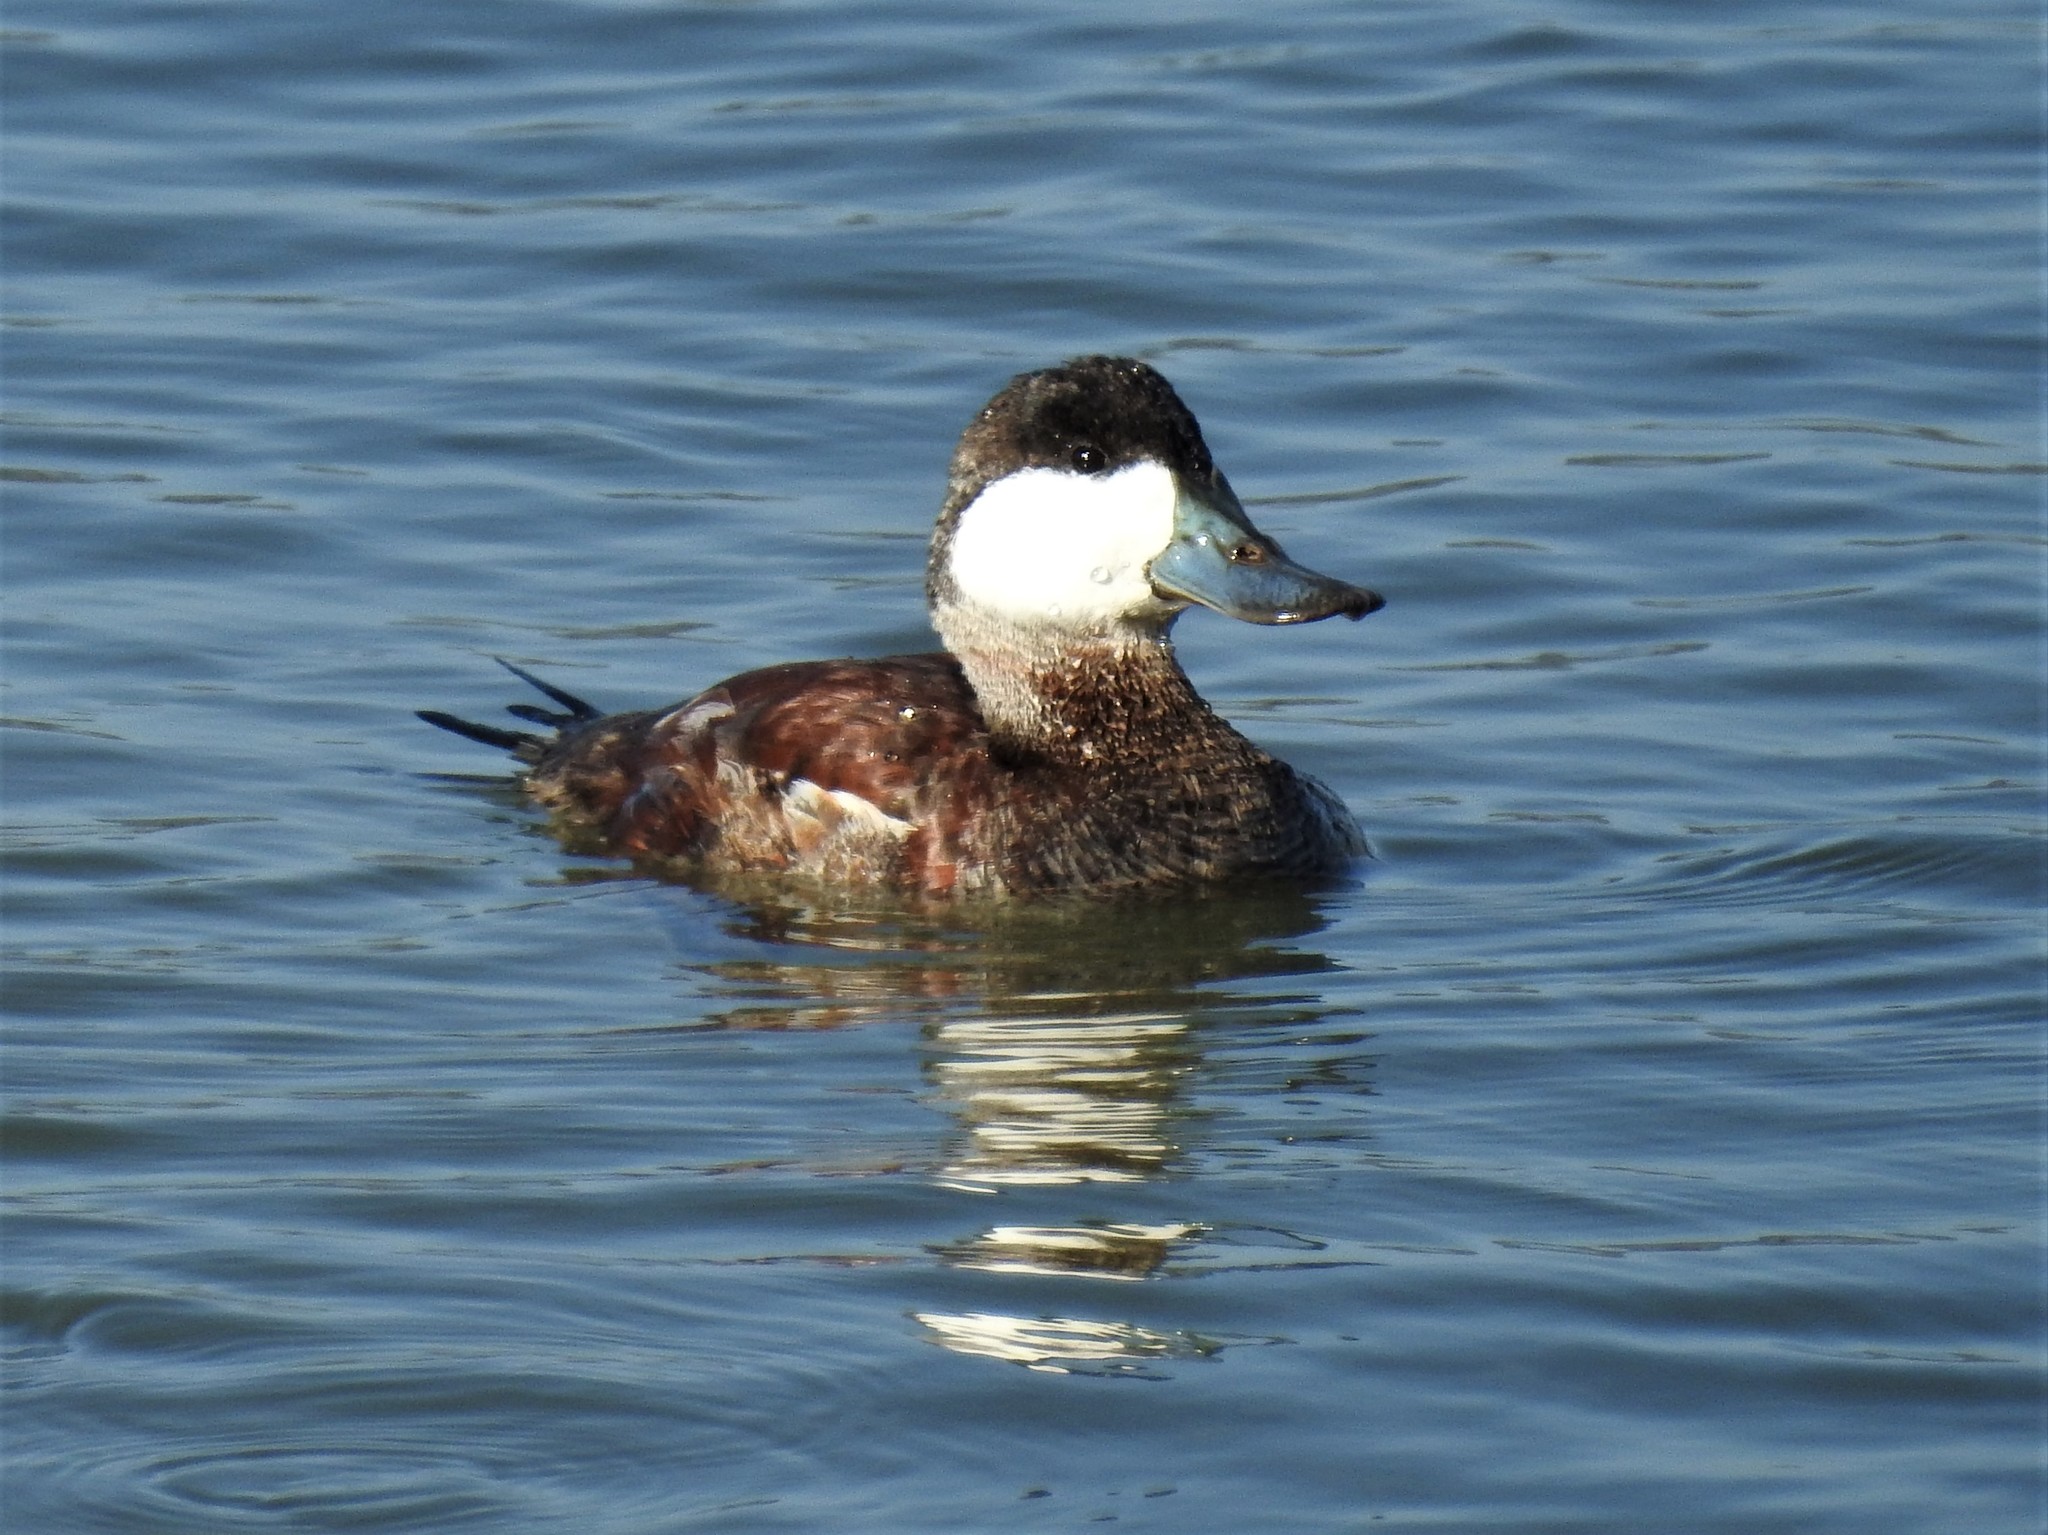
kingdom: Animalia
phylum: Chordata
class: Aves
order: Anseriformes
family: Anatidae
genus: Oxyura
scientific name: Oxyura jamaicensis
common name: Ruddy duck
